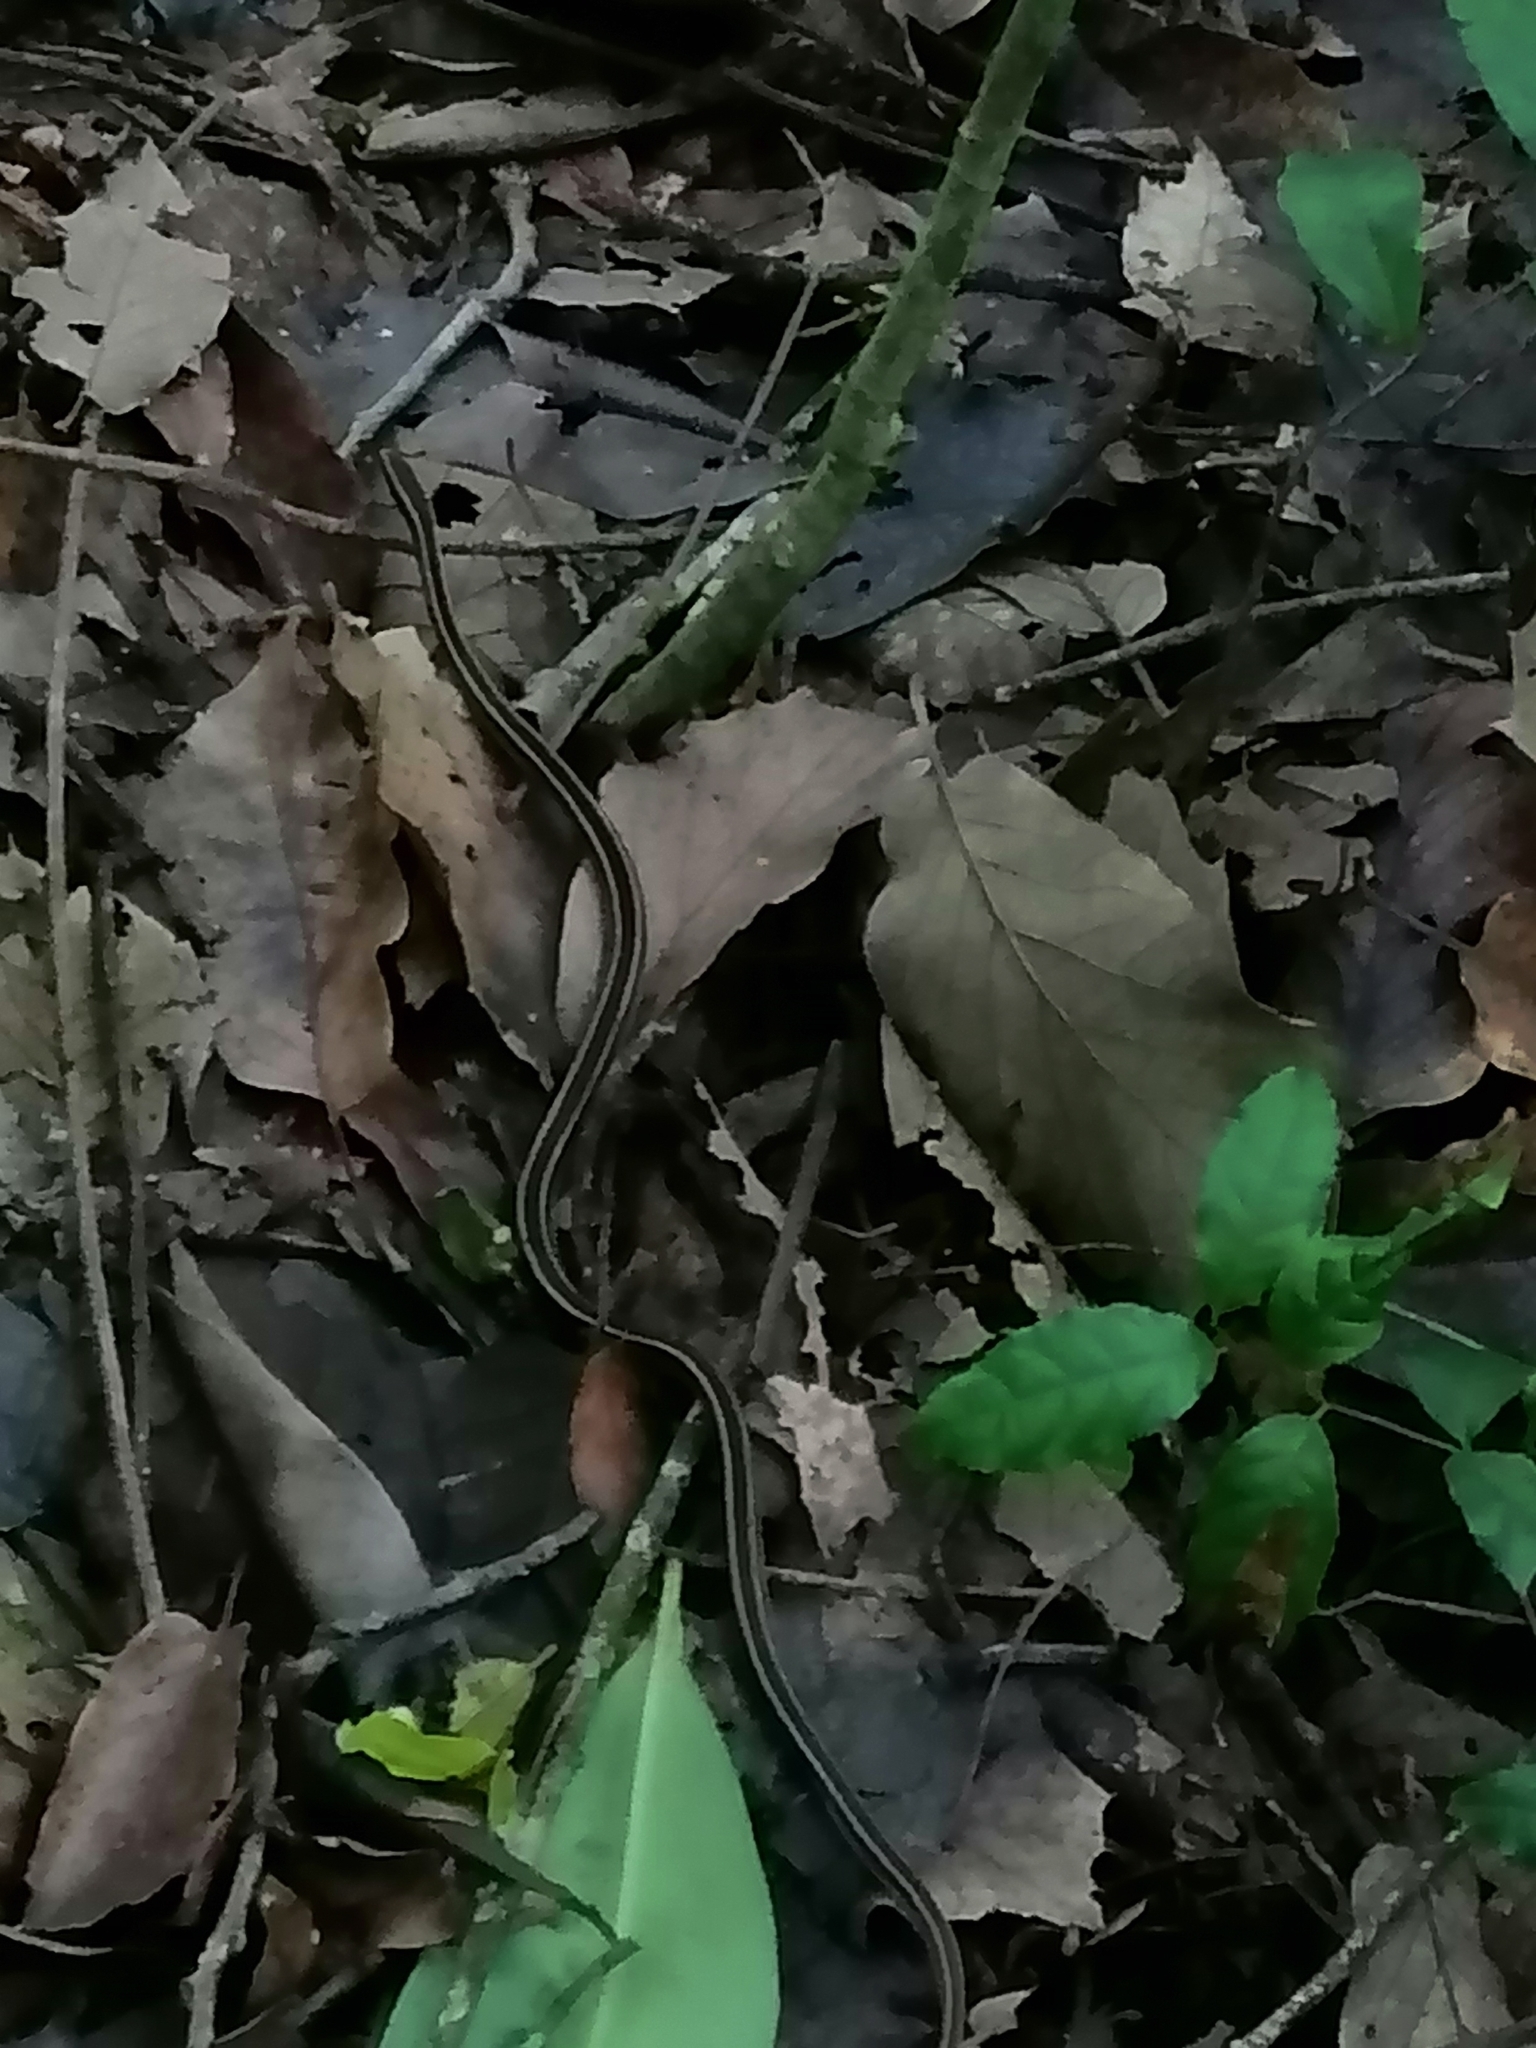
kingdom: Animalia
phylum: Chordata
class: Squamata
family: Colubridae
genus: Rhadinaea
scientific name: Rhadinaea taeniata
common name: Pine-oak snake
